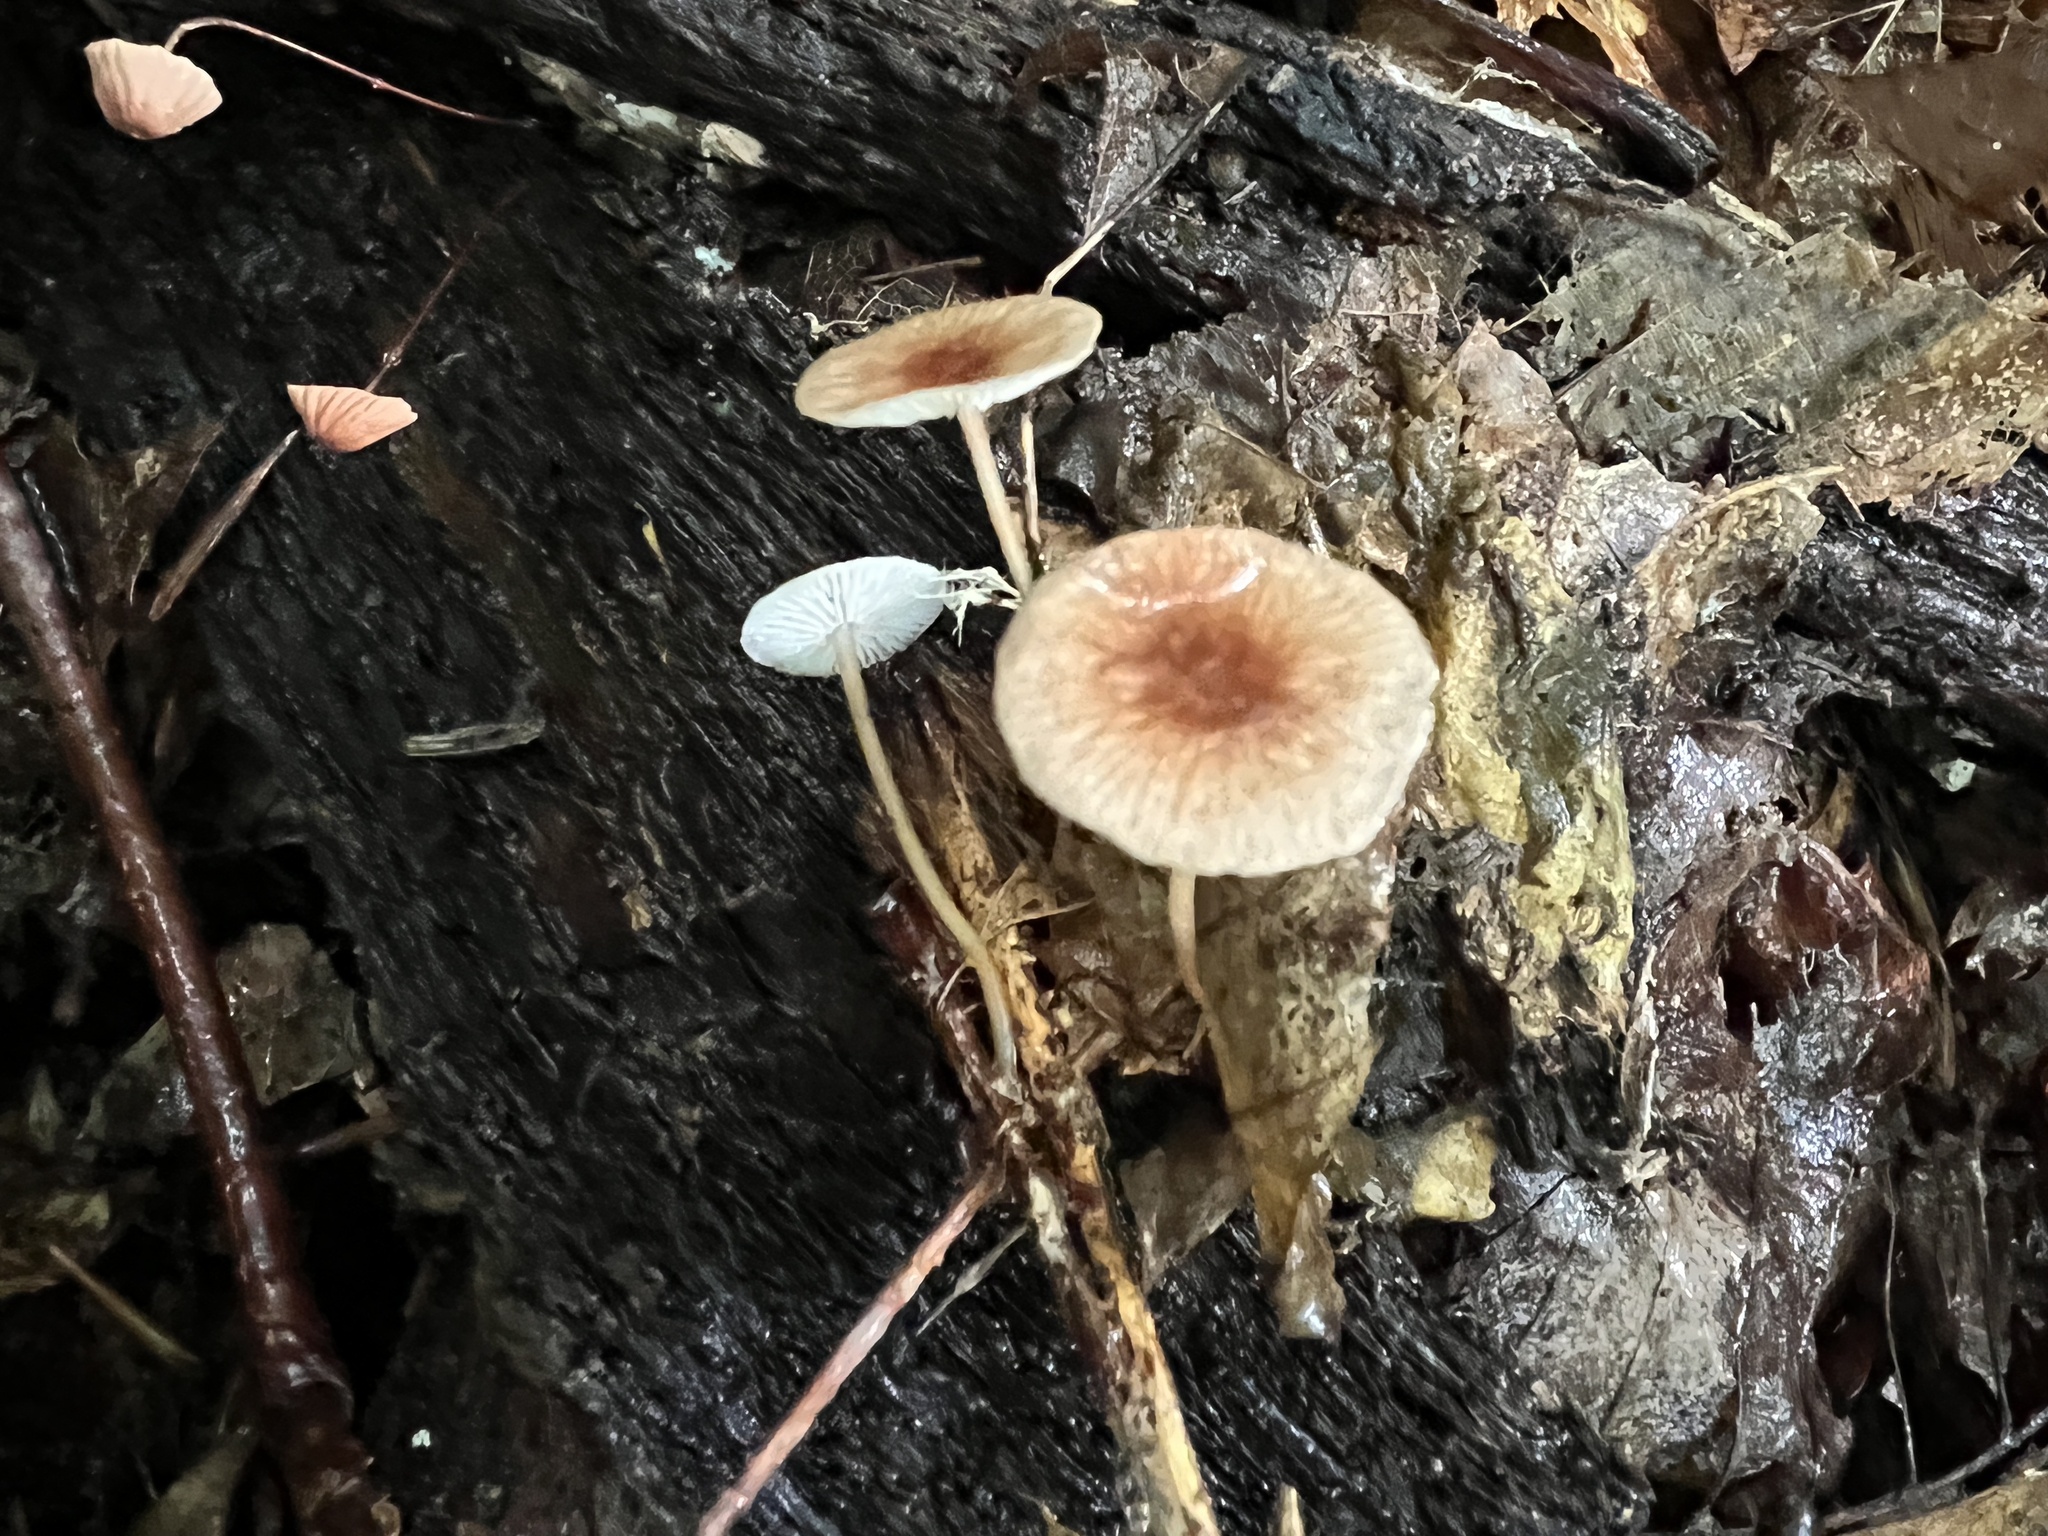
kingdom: Fungi
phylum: Basidiomycota
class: Agaricomycetes
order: Agaricales
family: Omphalotaceae
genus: Collybiopsis
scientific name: Collybiopsis disjuncta
